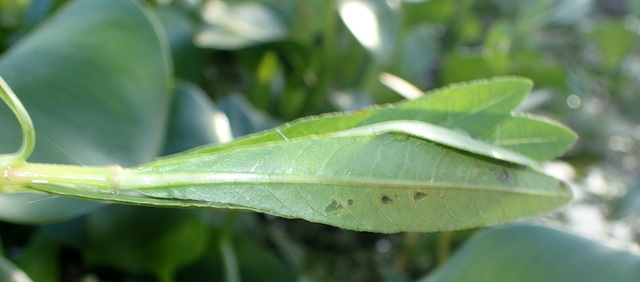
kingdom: Animalia
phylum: Arthropoda
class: Insecta
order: Lepidoptera
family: Crambidae
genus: Herpetogramma
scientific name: Herpetogramma bipunctalis
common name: Southern beet webworm
